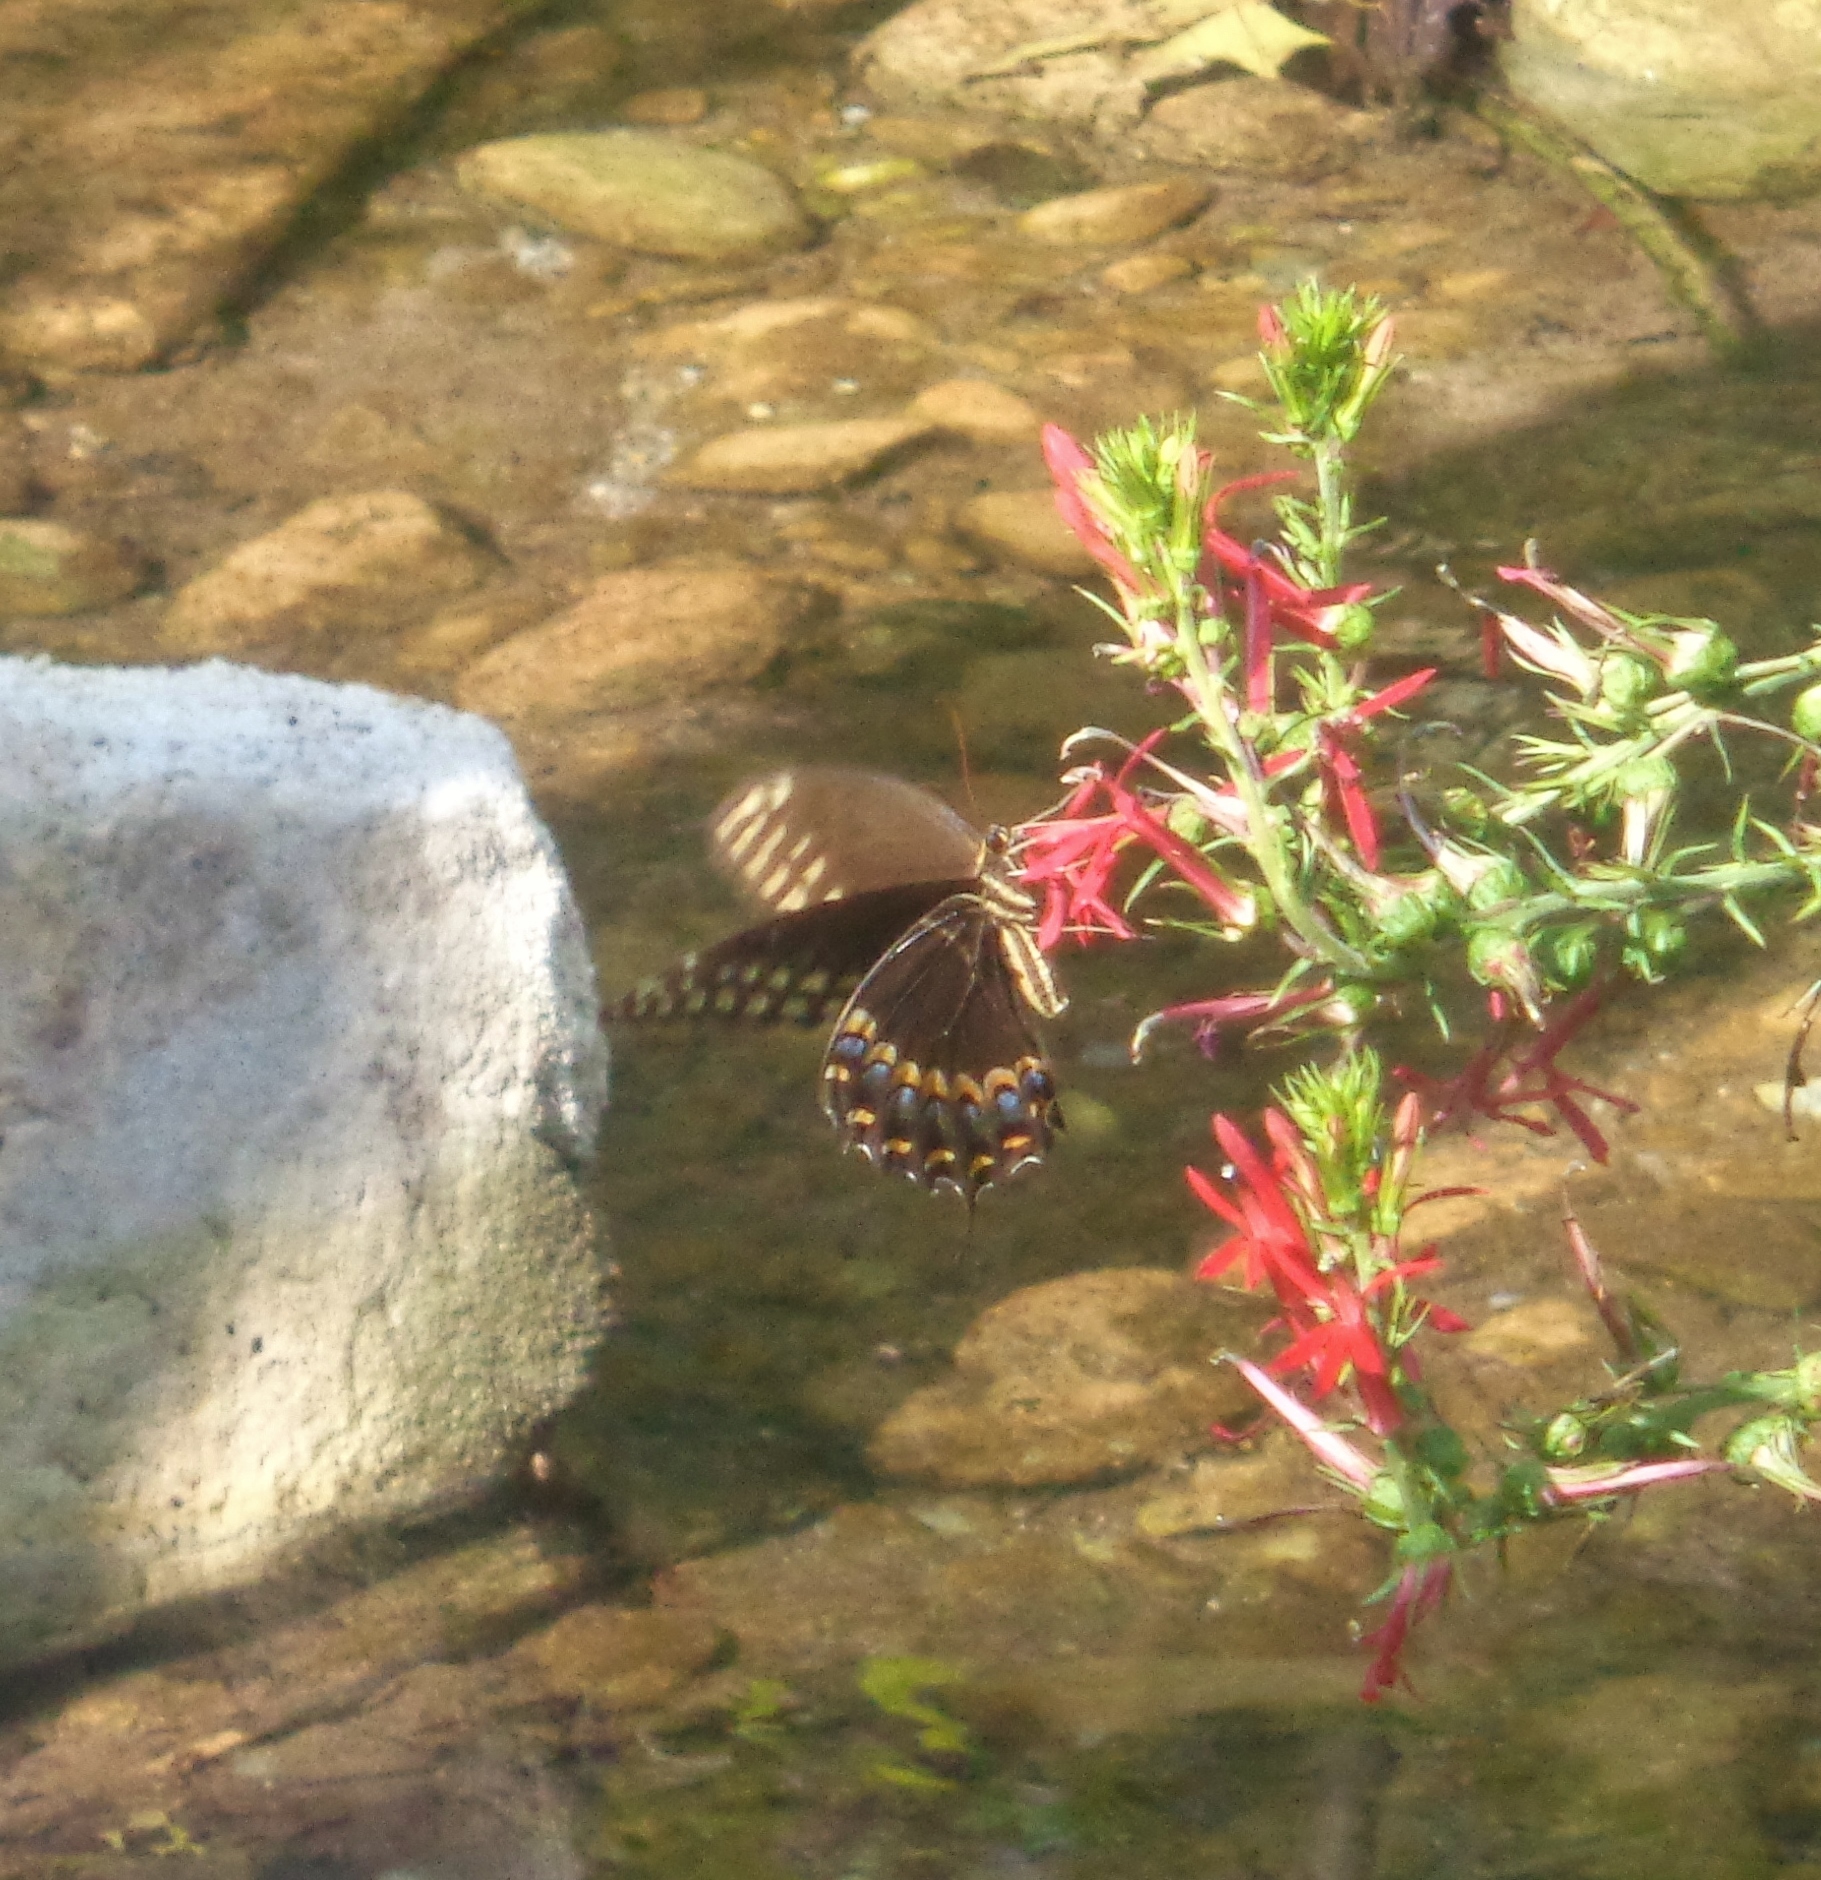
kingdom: Animalia
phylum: Arthropoda
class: Insecta
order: Lepidoptera
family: Papilionidae
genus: Papilio
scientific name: Papilio palamedes
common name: Palamedes swallowtail
